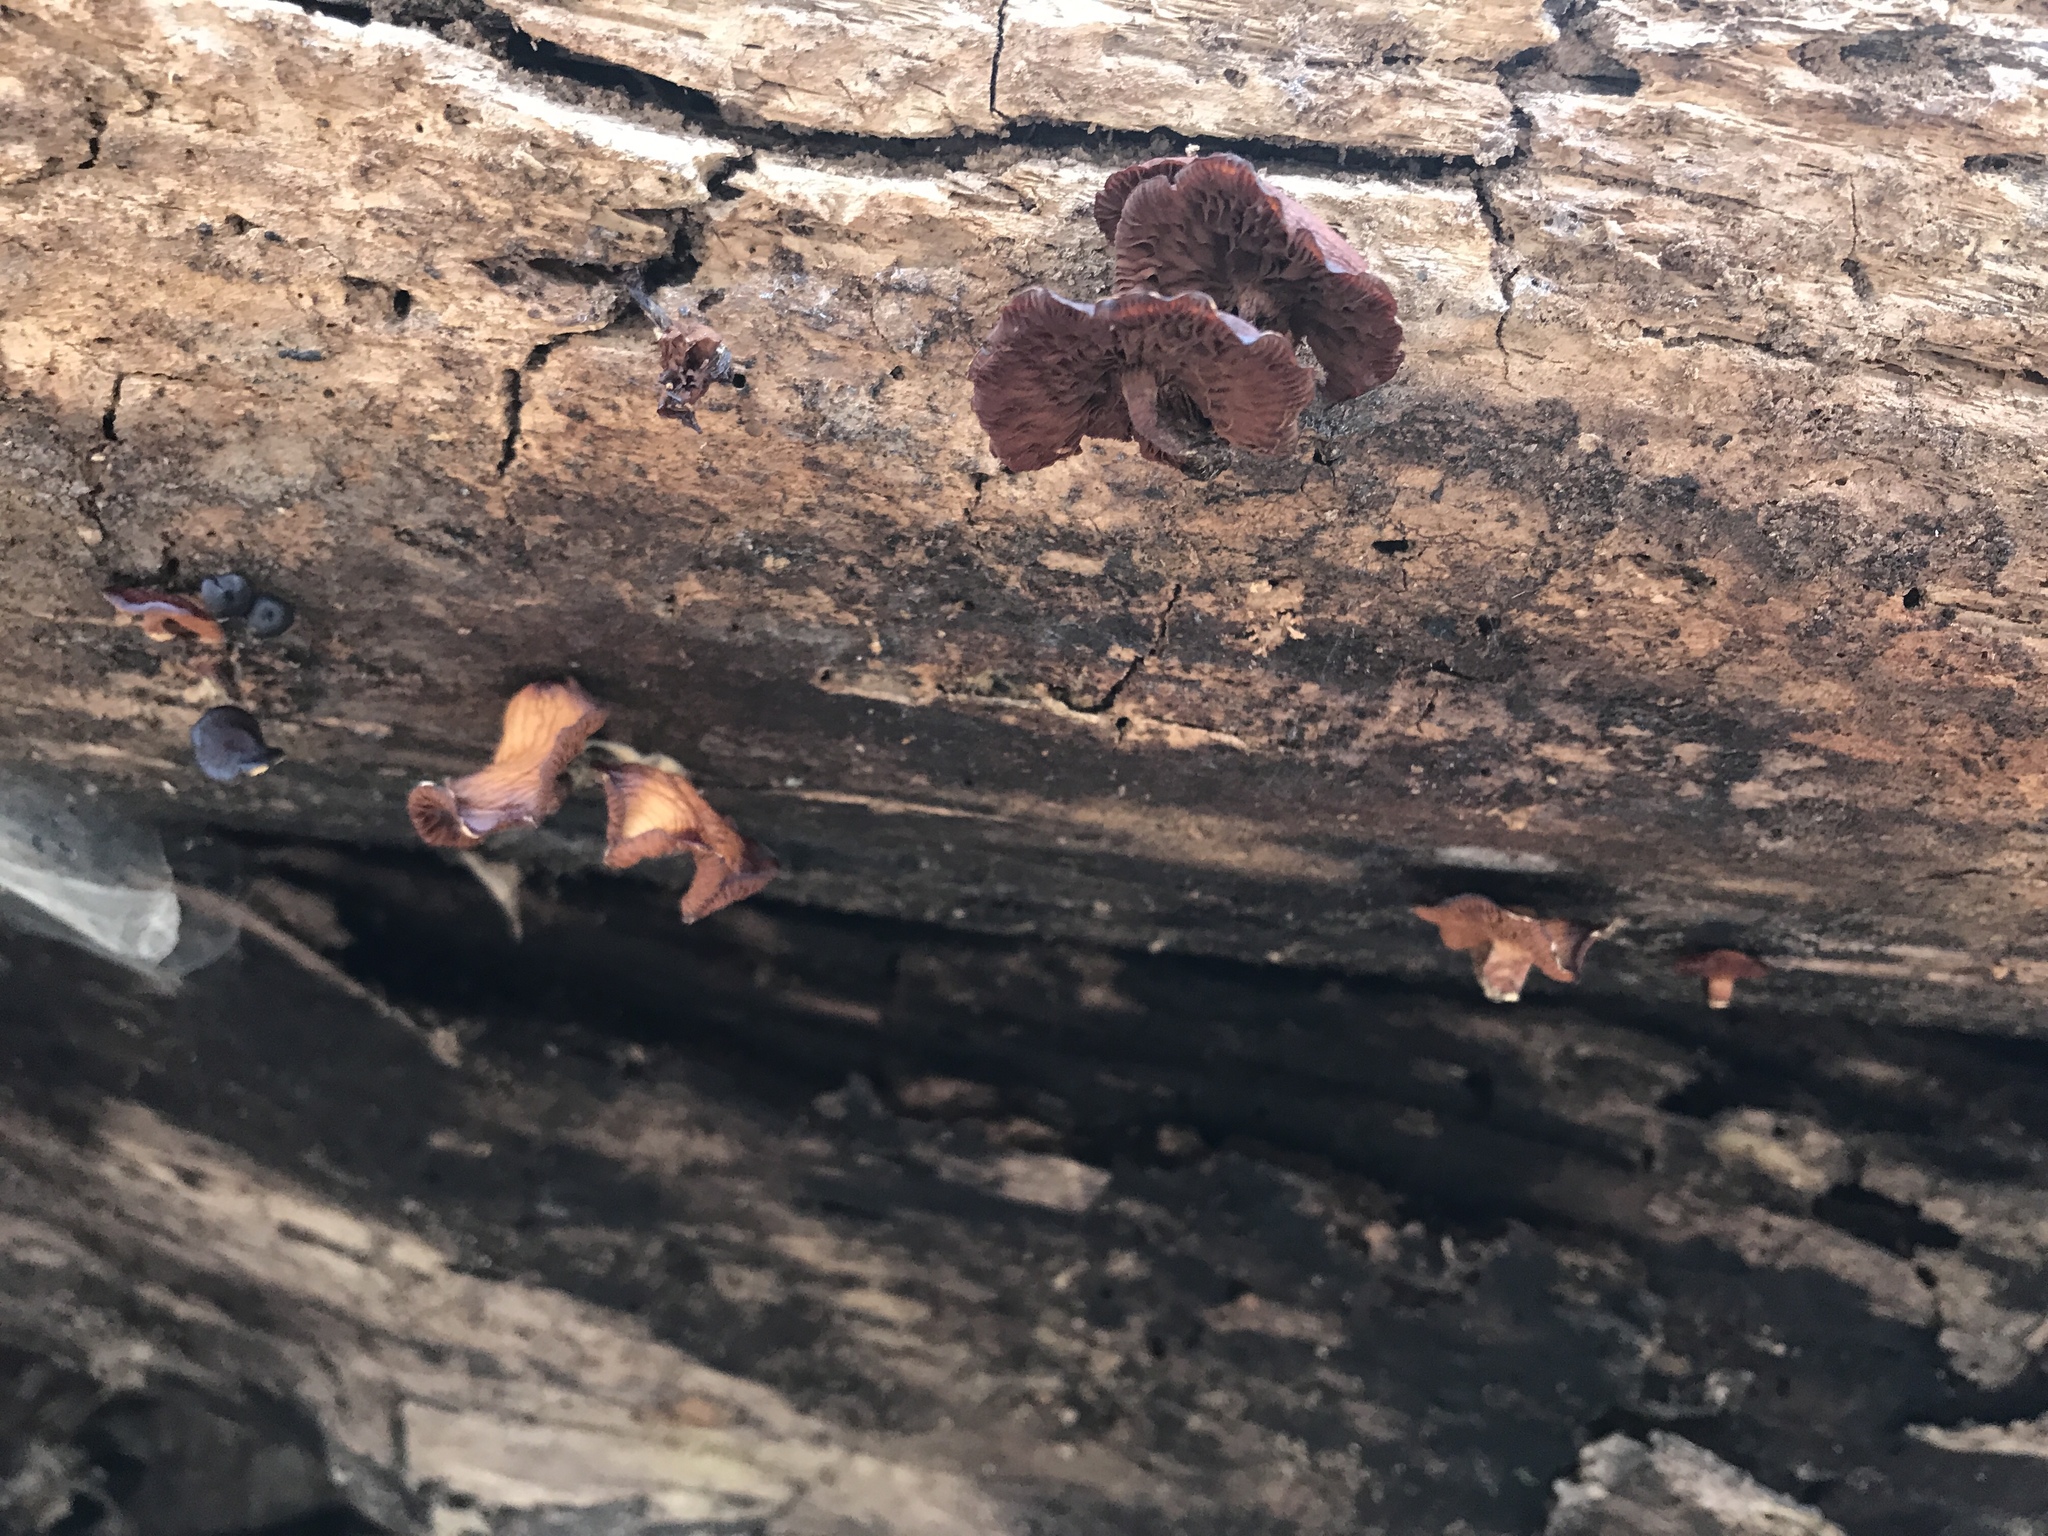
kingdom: Fungi
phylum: Basidiomycota
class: Agaricomycetes
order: Agaricales
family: Hymenogastraceae
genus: Galerina
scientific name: Galerina marginata
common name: Funeral bell
